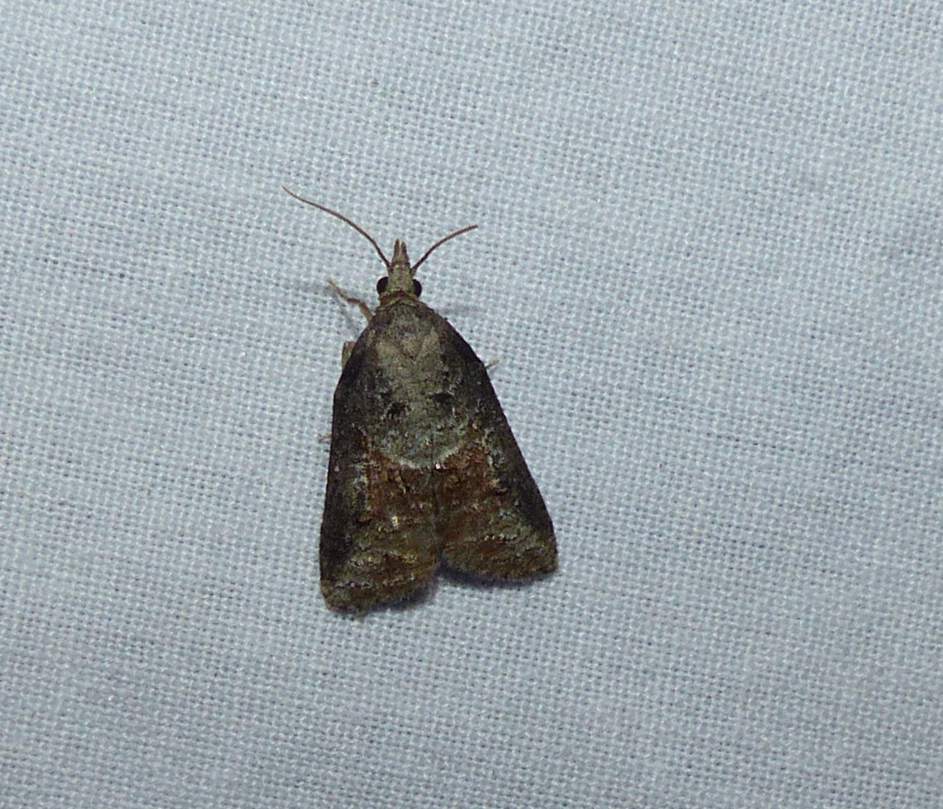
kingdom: Animalia
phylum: Arthropoda
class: Insecta
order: Lepidoptera
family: Tortricidae
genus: Platynota
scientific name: Platynota idaeusalis
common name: Tufted apple bud moth
